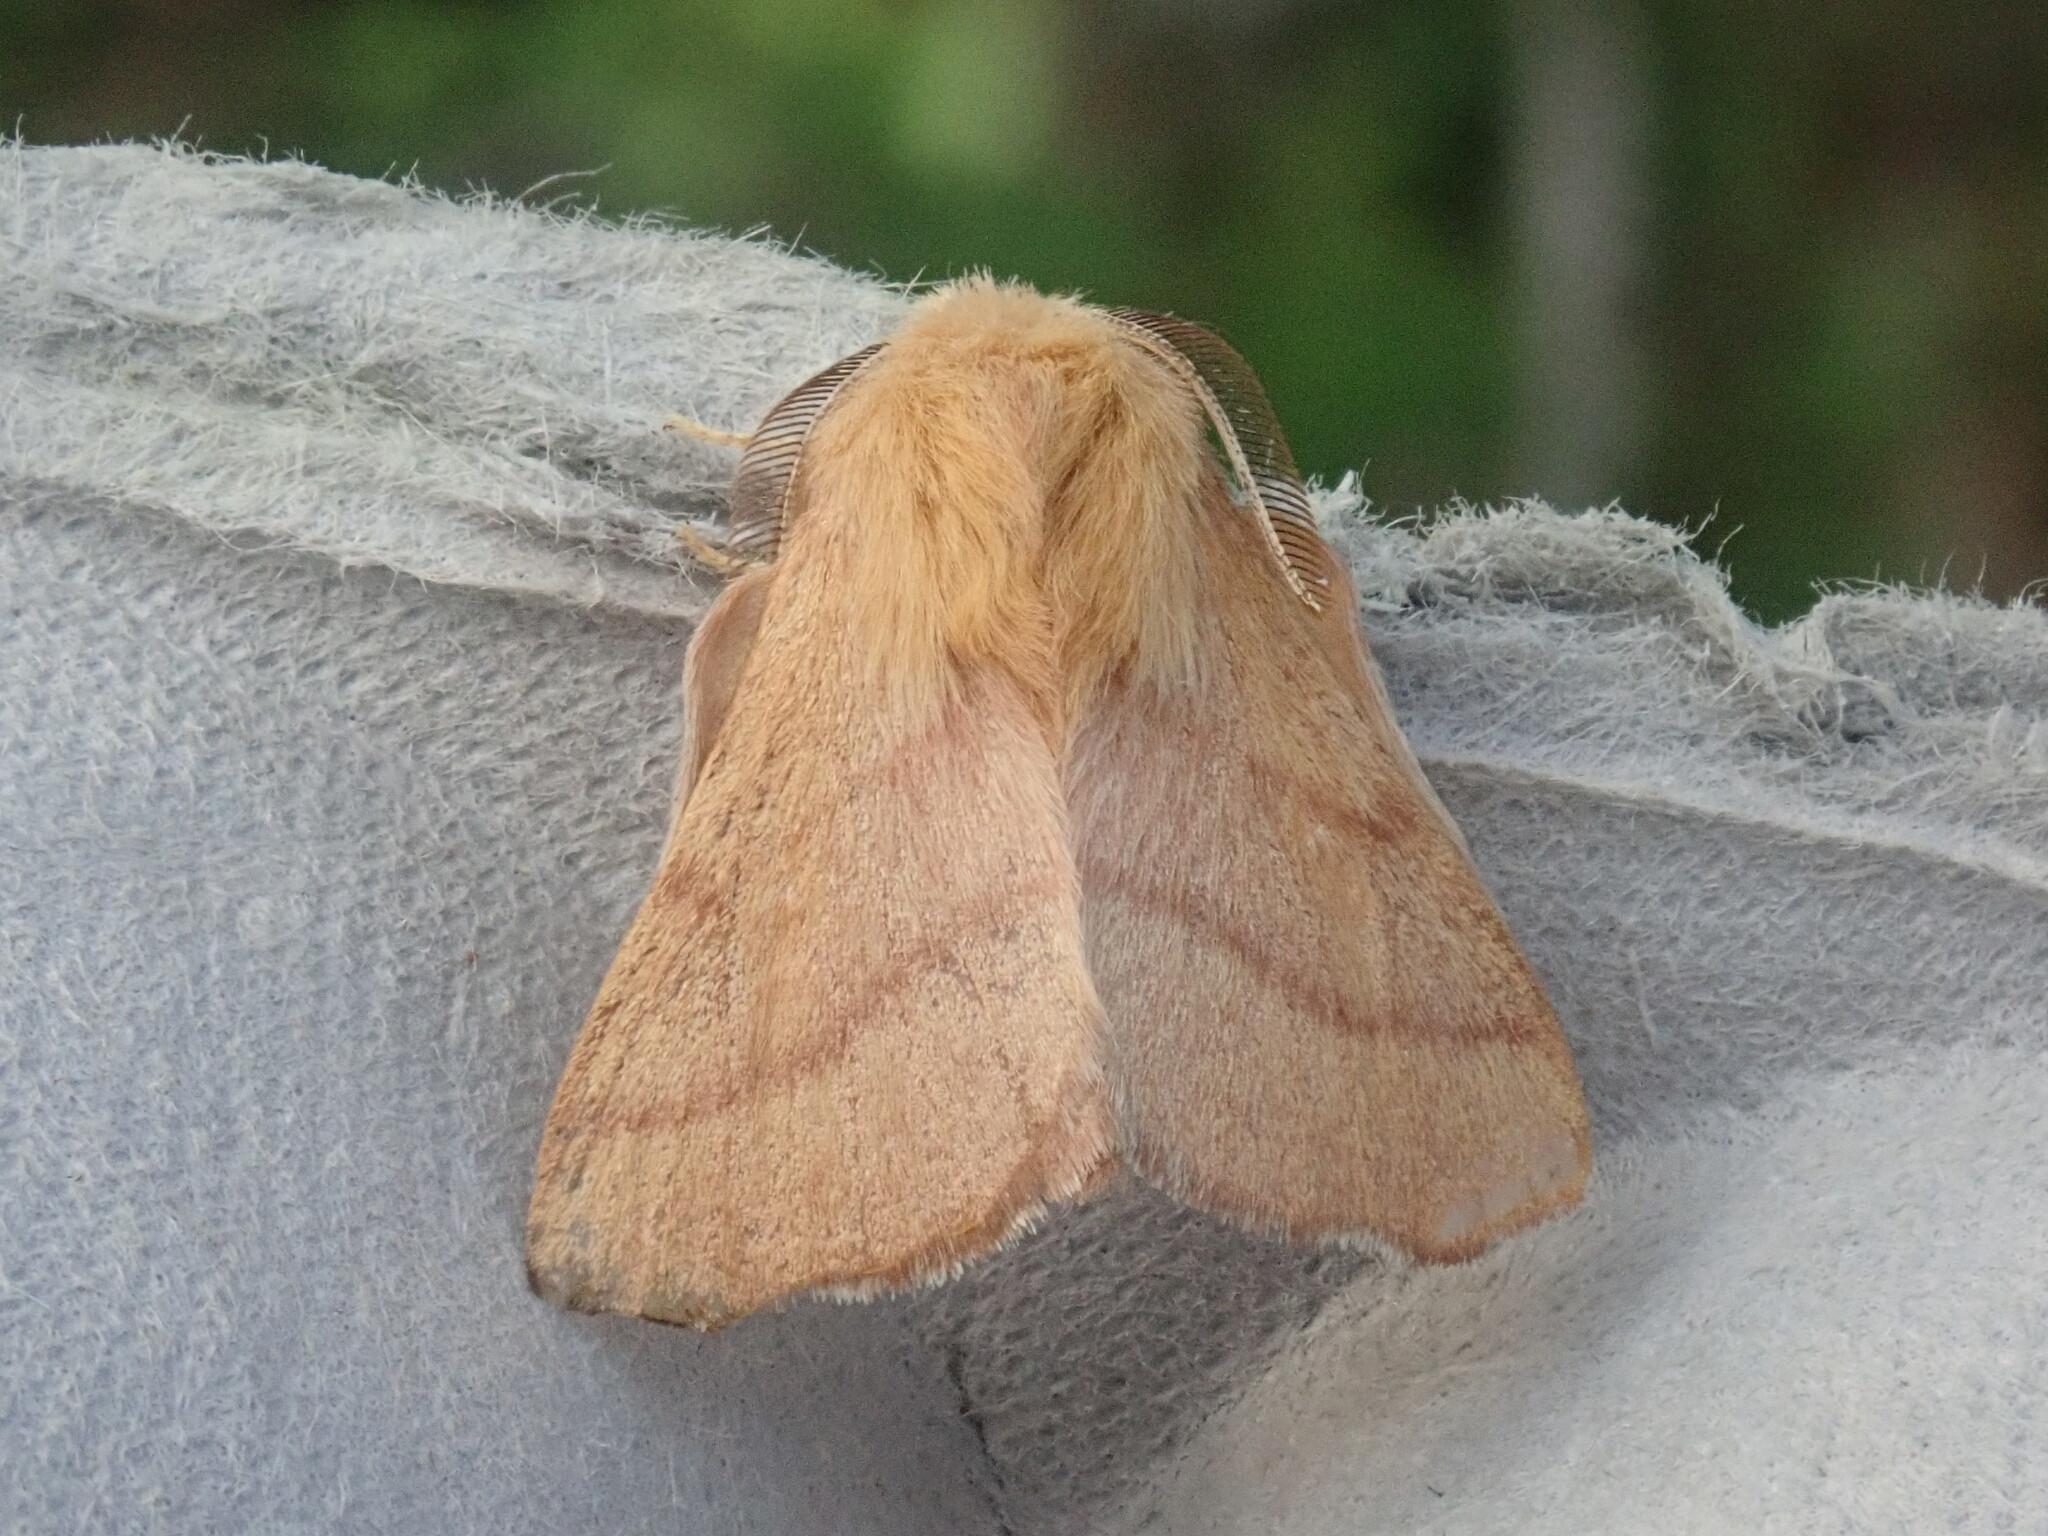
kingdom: Animalia
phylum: Arthropoda
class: Insecta
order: Lepidoptera
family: Lasiocampidae
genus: Malacosoma
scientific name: Malacosoma disstria
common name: Forest tent caterpillar
